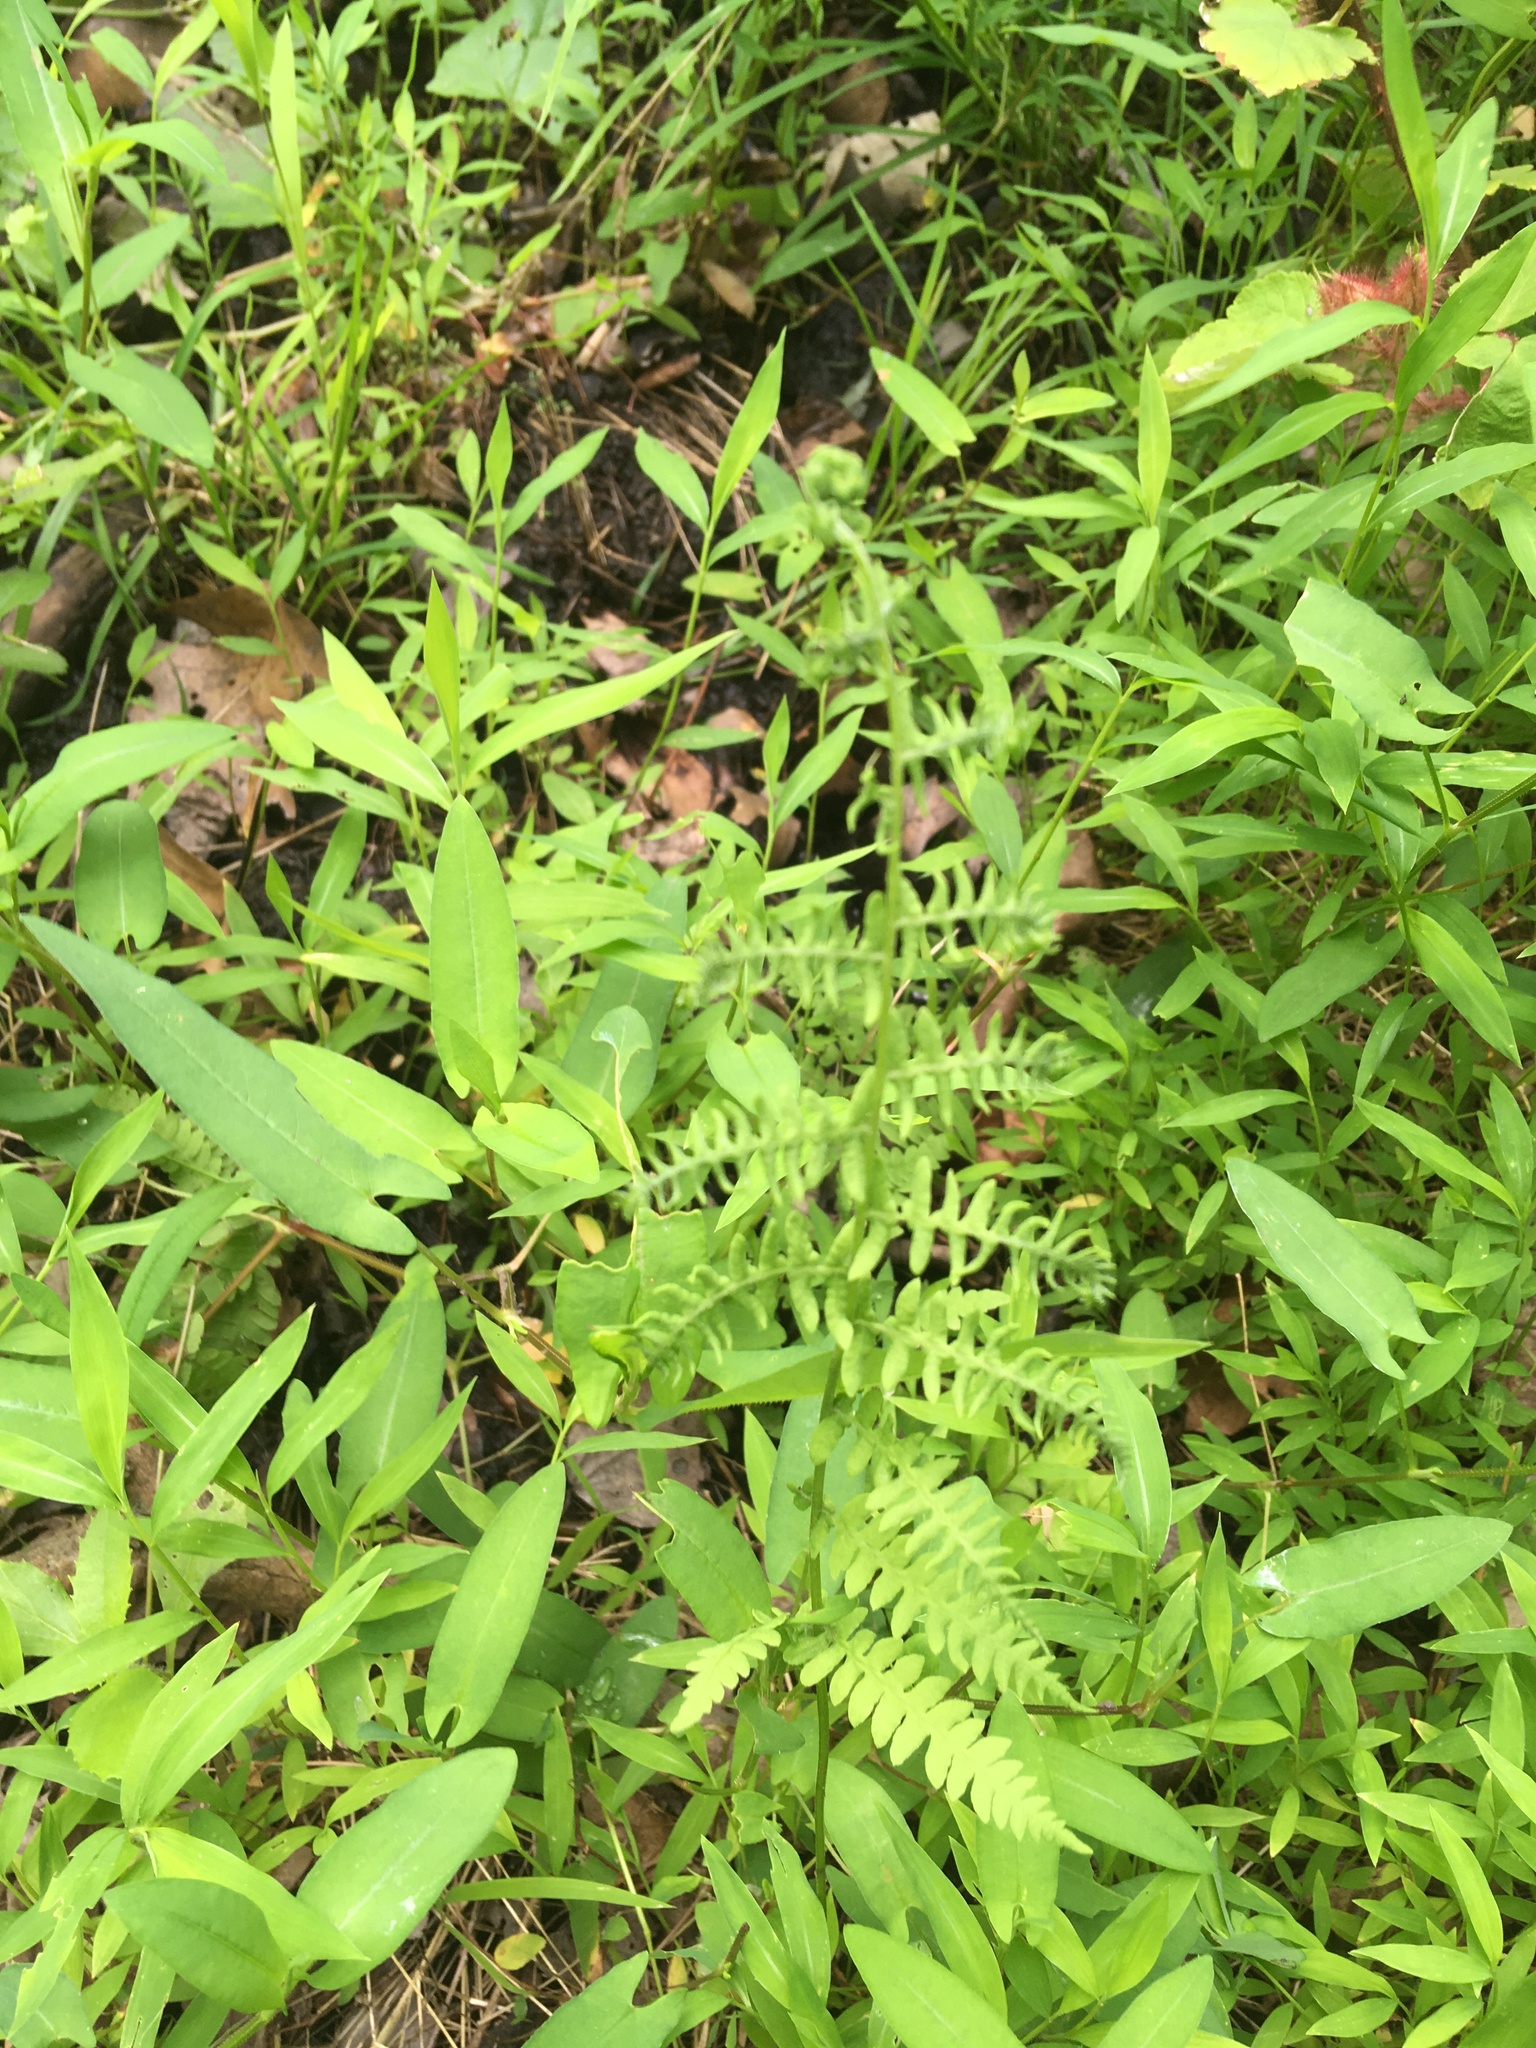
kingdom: Plantae
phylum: Tracheophyta
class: Polypodiopsida
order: Polypodiales
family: Thelypteridaceae
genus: Thelypteris
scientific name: Thelypteris palustris
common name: Marsh fern
